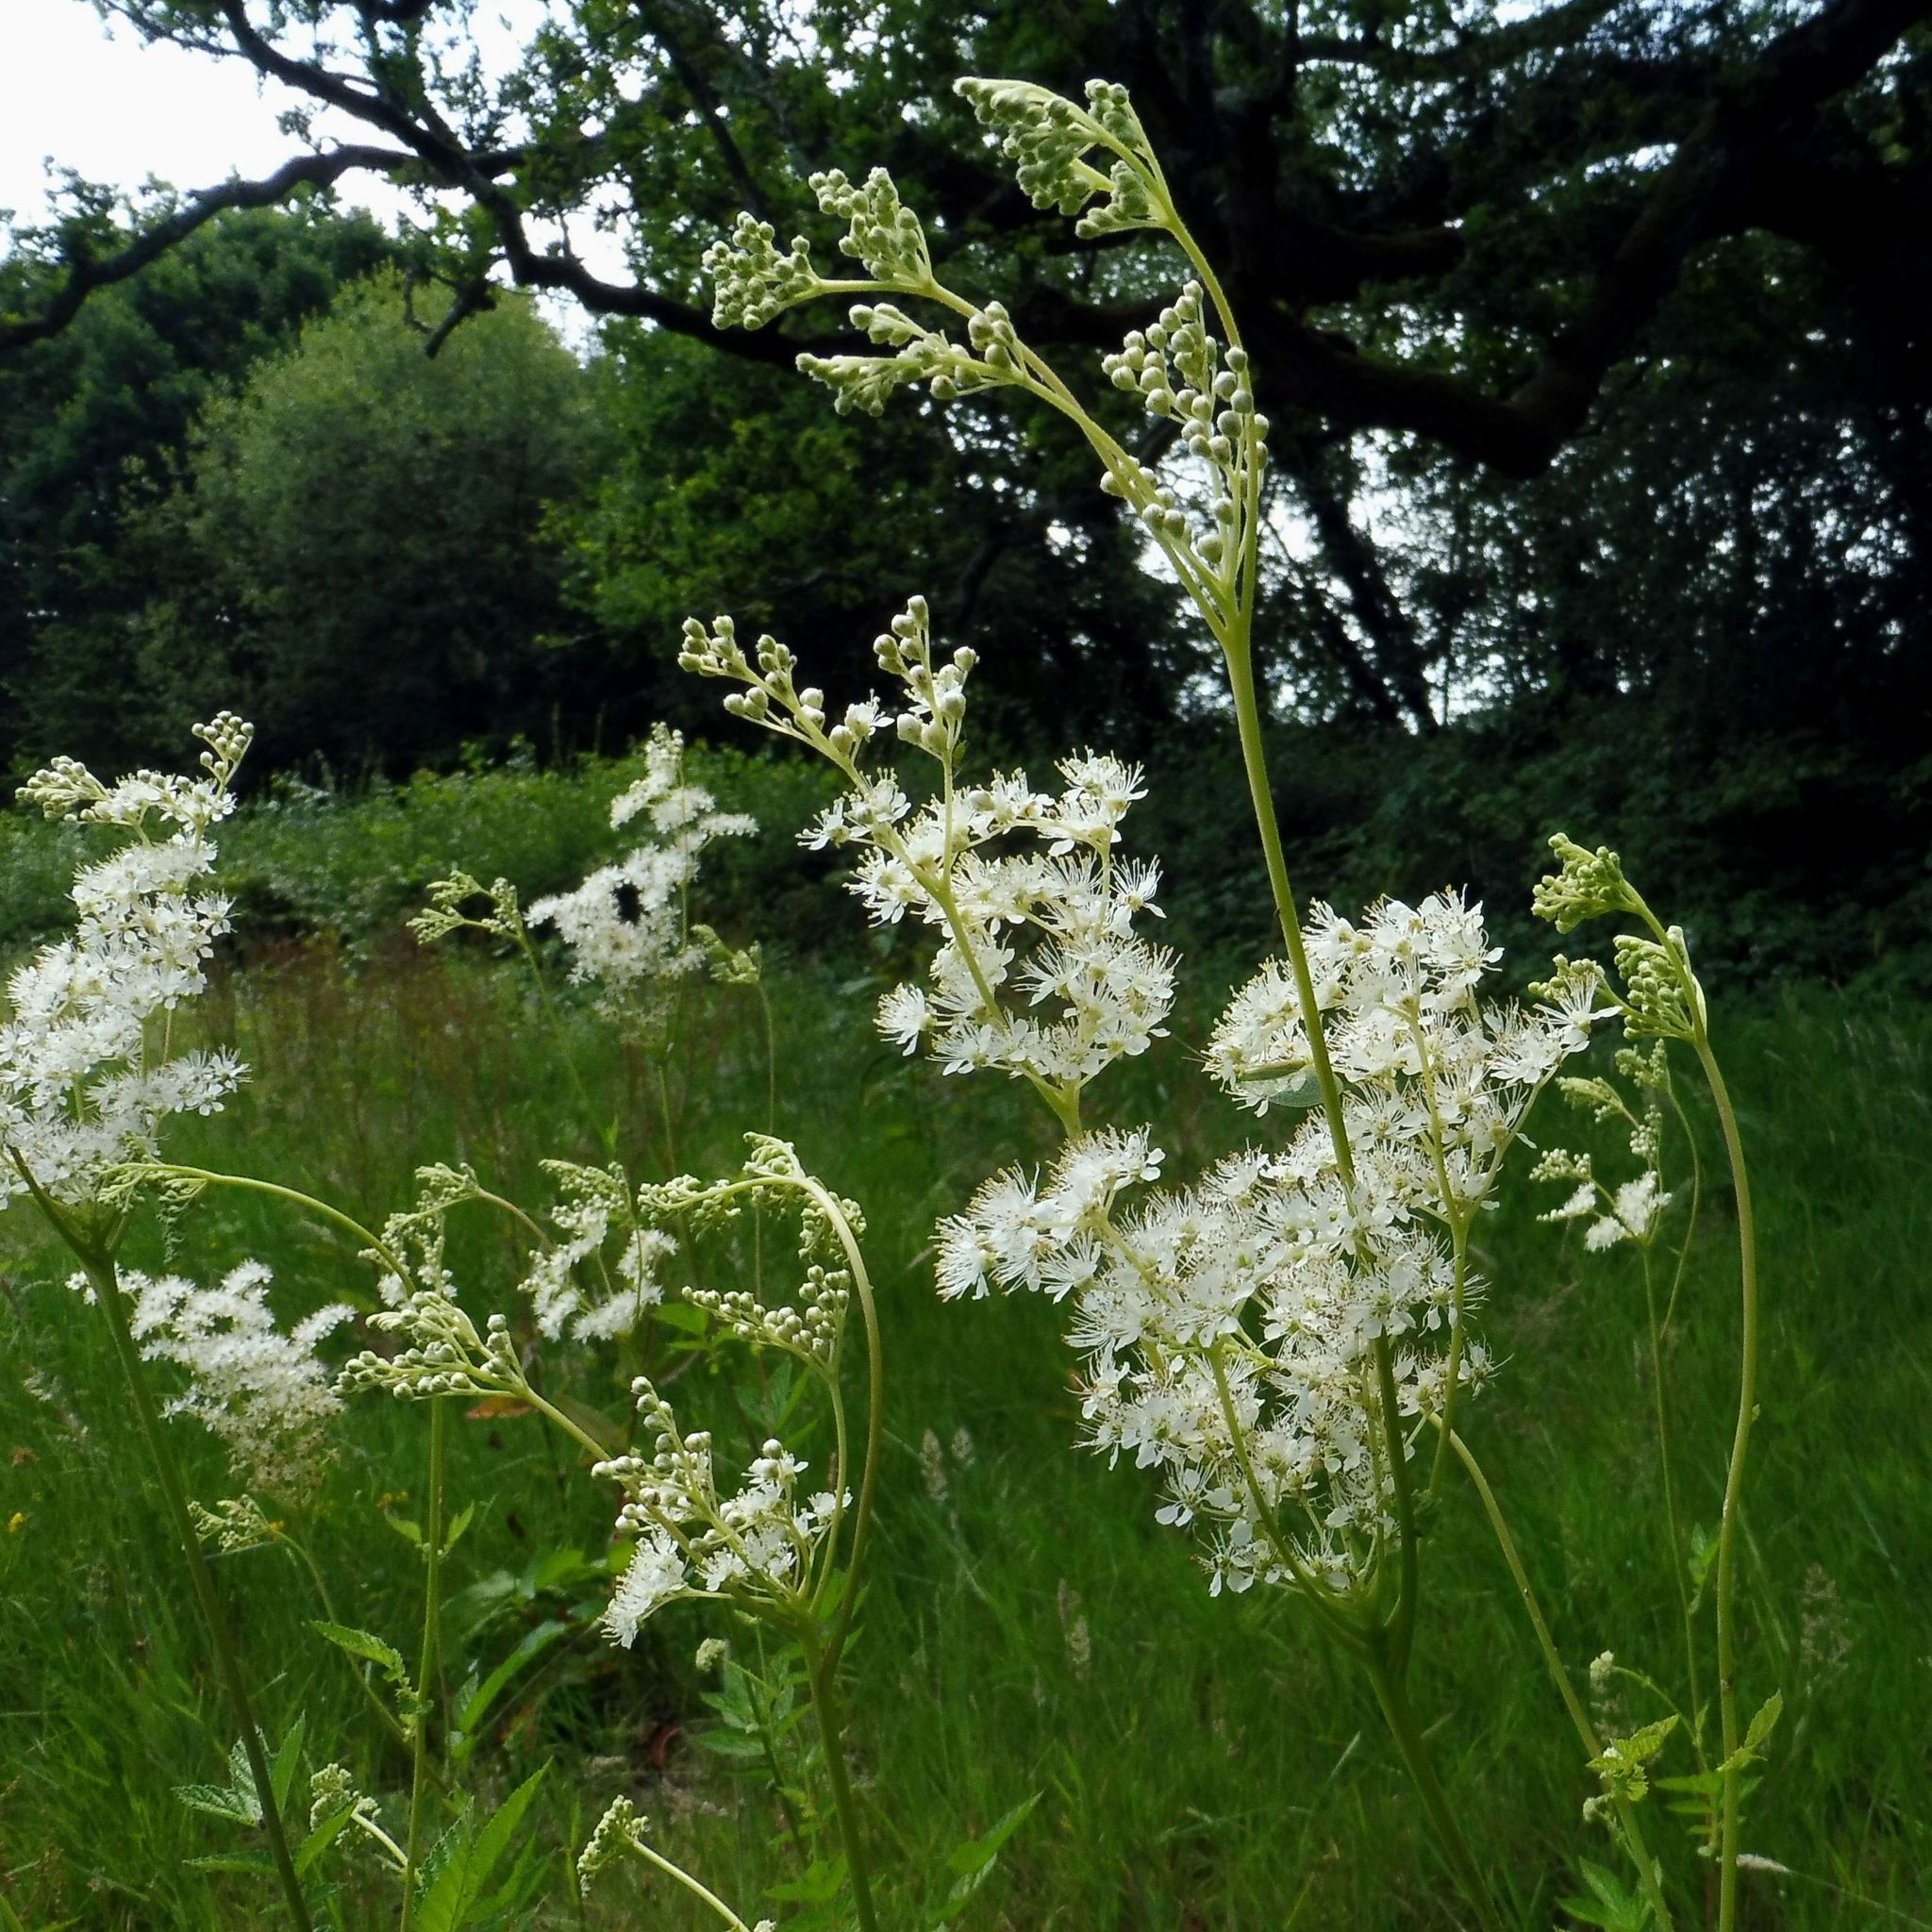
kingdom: Plantae
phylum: Tracheophyta
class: Magnoliopsida
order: Rosales
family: Rosaceae
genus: Filipendula
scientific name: Filipendula ulmaria
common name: Meadowsweet
